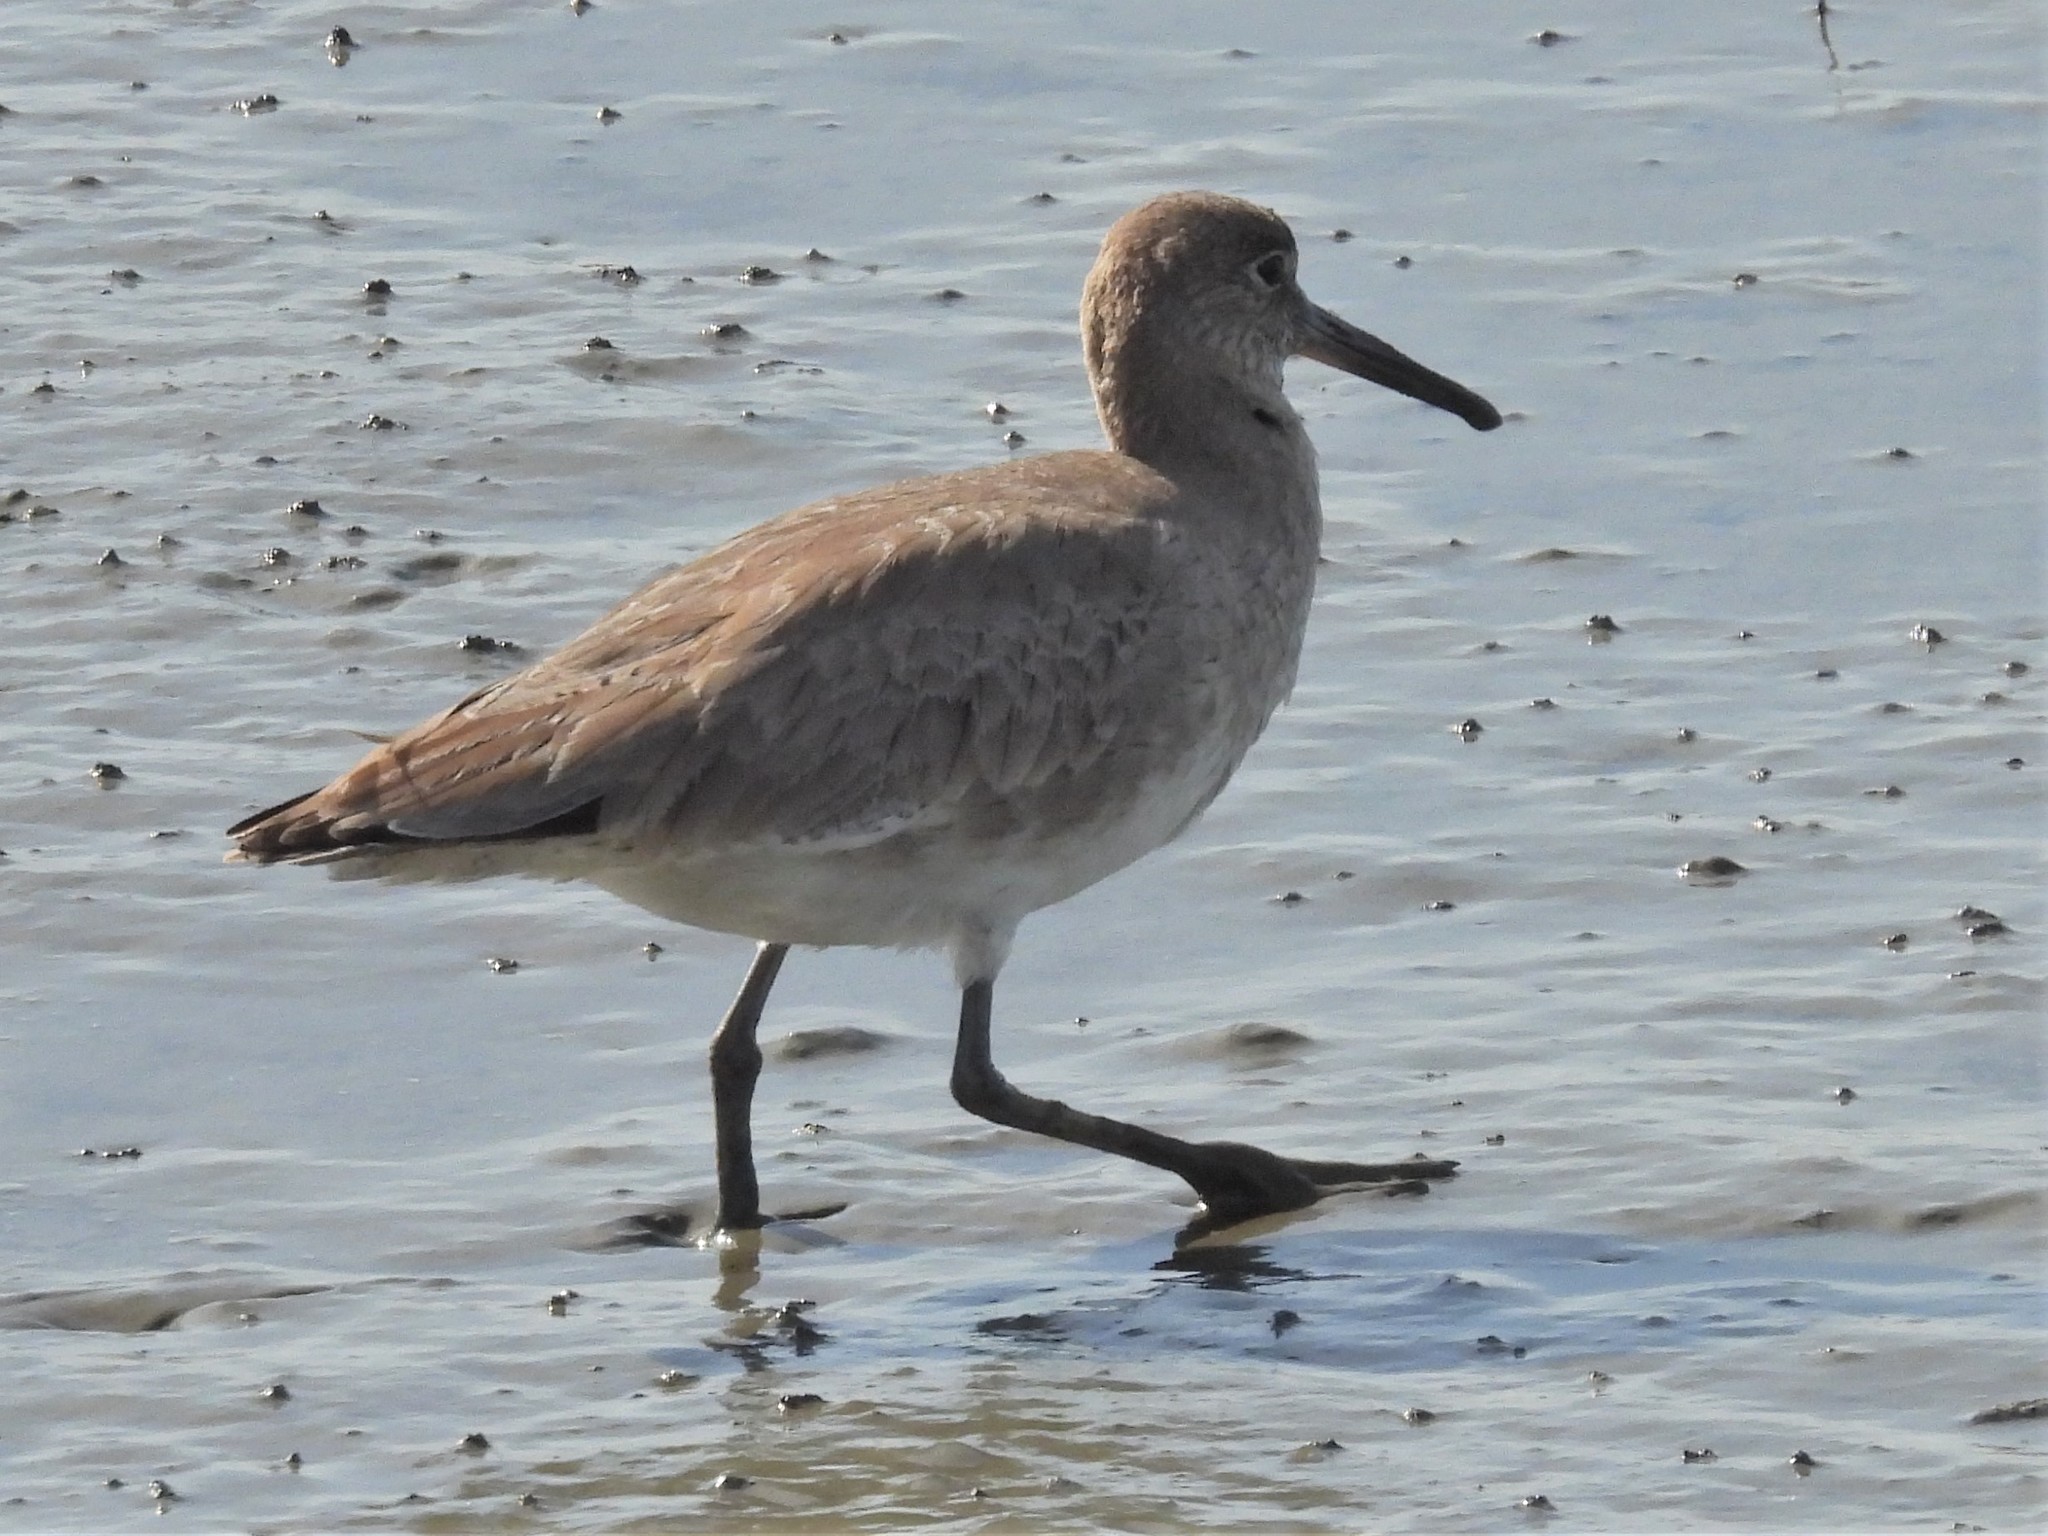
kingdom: Animalia
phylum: Chordata
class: Aves
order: Charadriiformes
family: Scolopacidae
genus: Tringa
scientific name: Tringa semipalmata
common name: Willet
